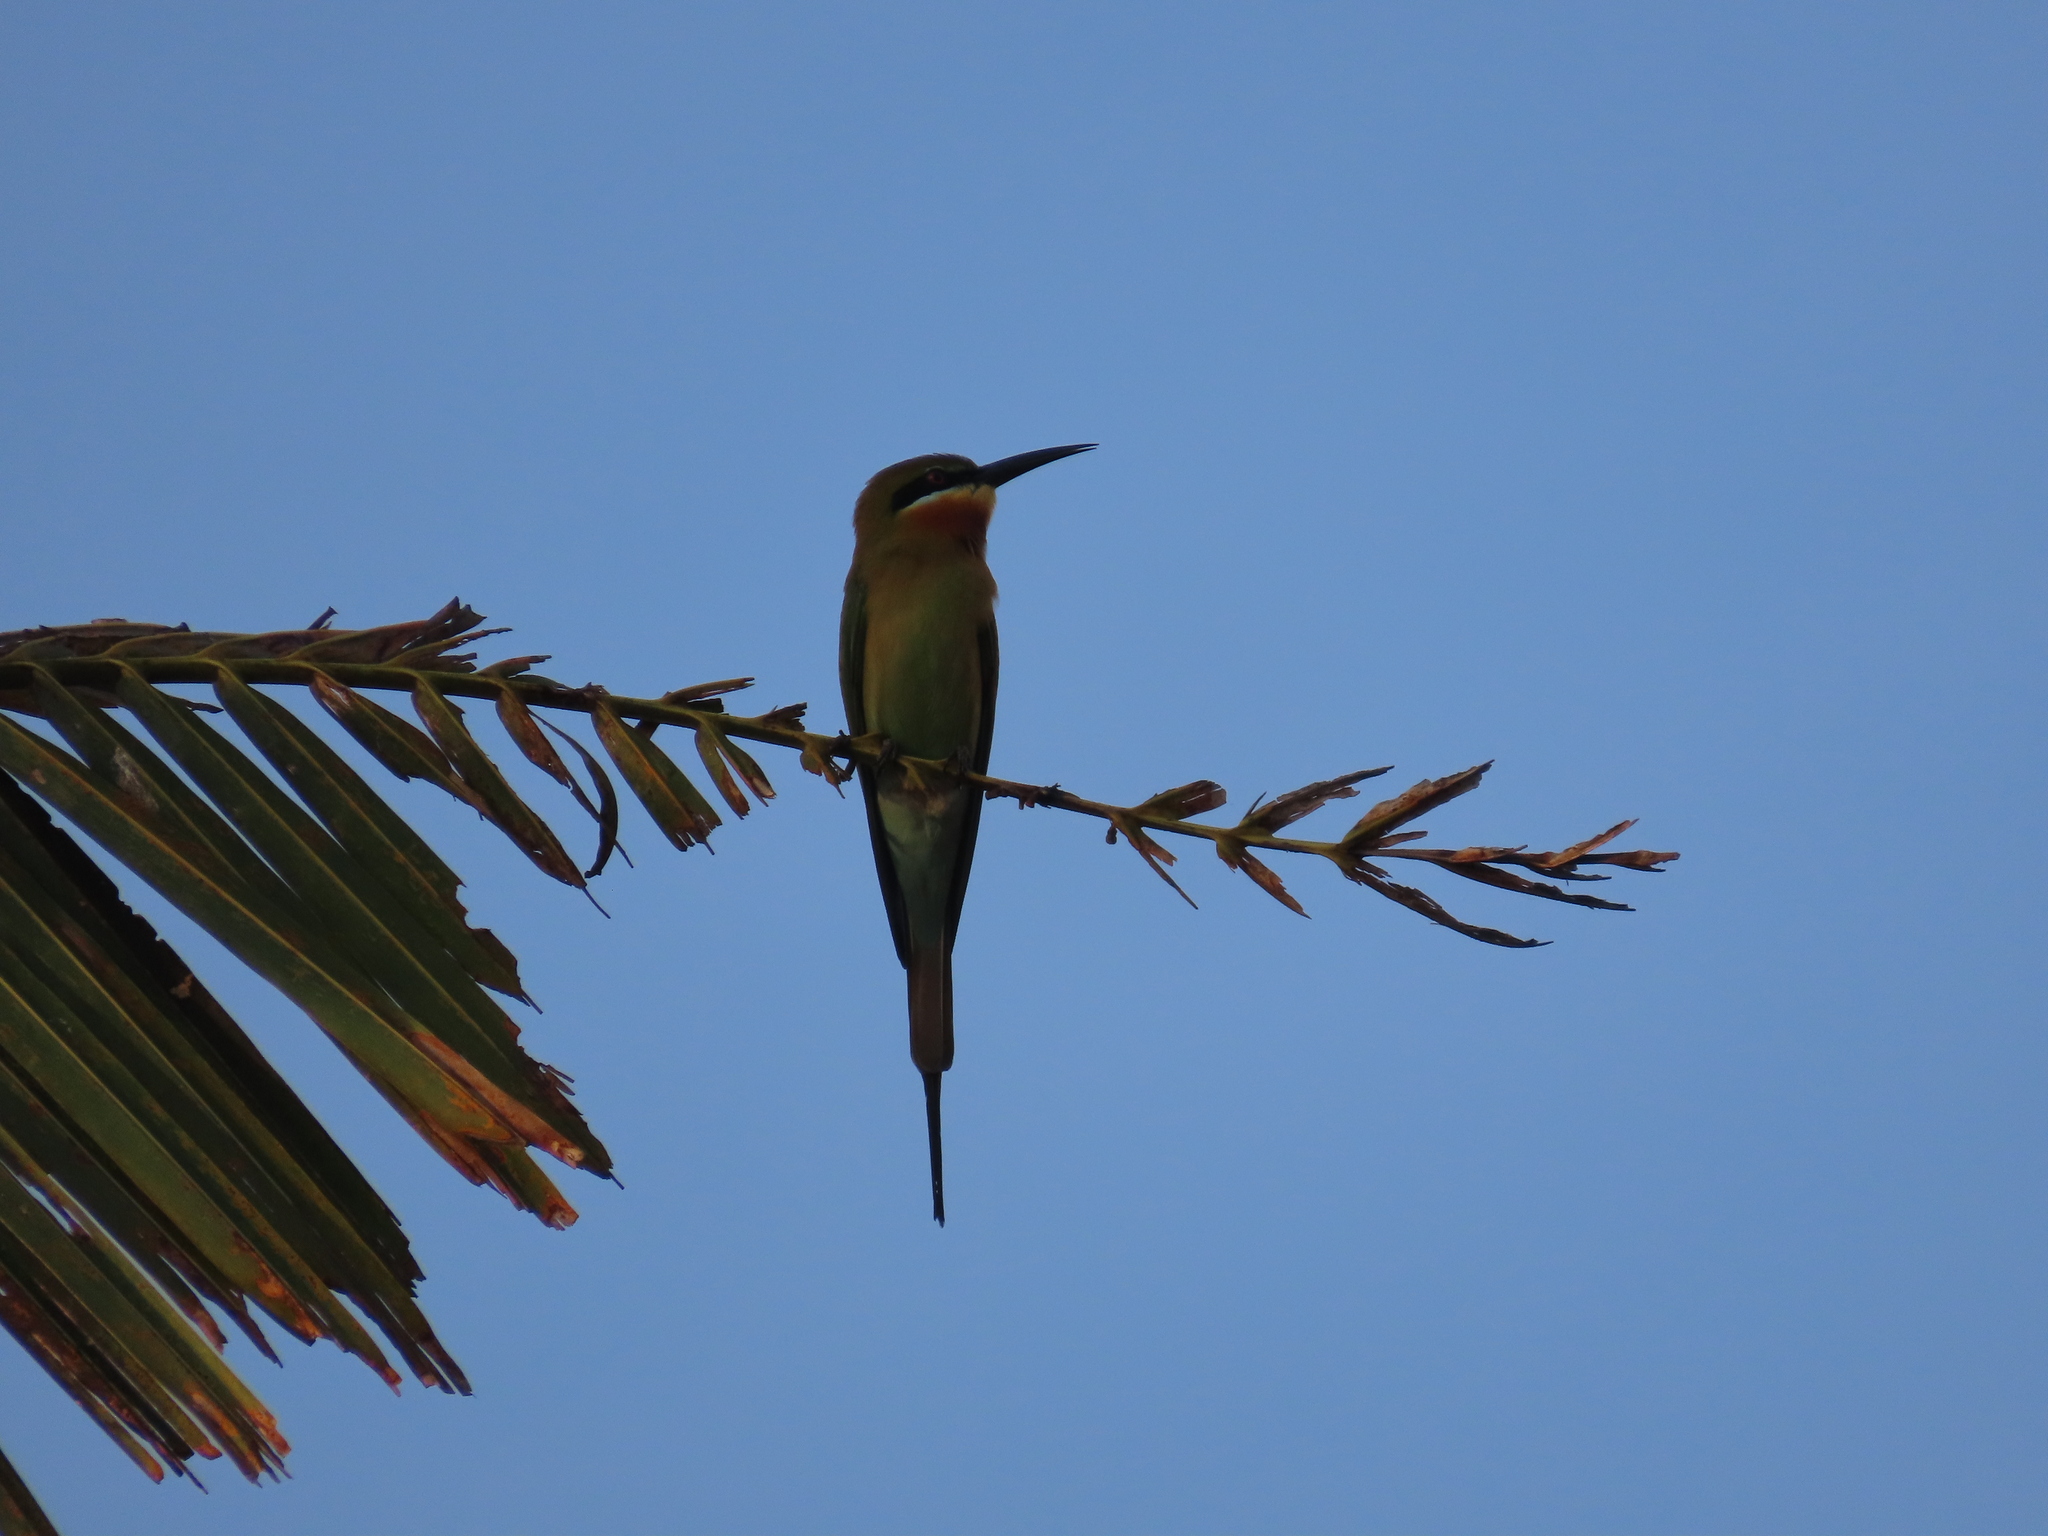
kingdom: Animalia
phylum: Chordata
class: Aves
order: Coraciiformes
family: Meropidae
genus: Merops
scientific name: Merops philippinus
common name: Blue-tailed bee-eater
